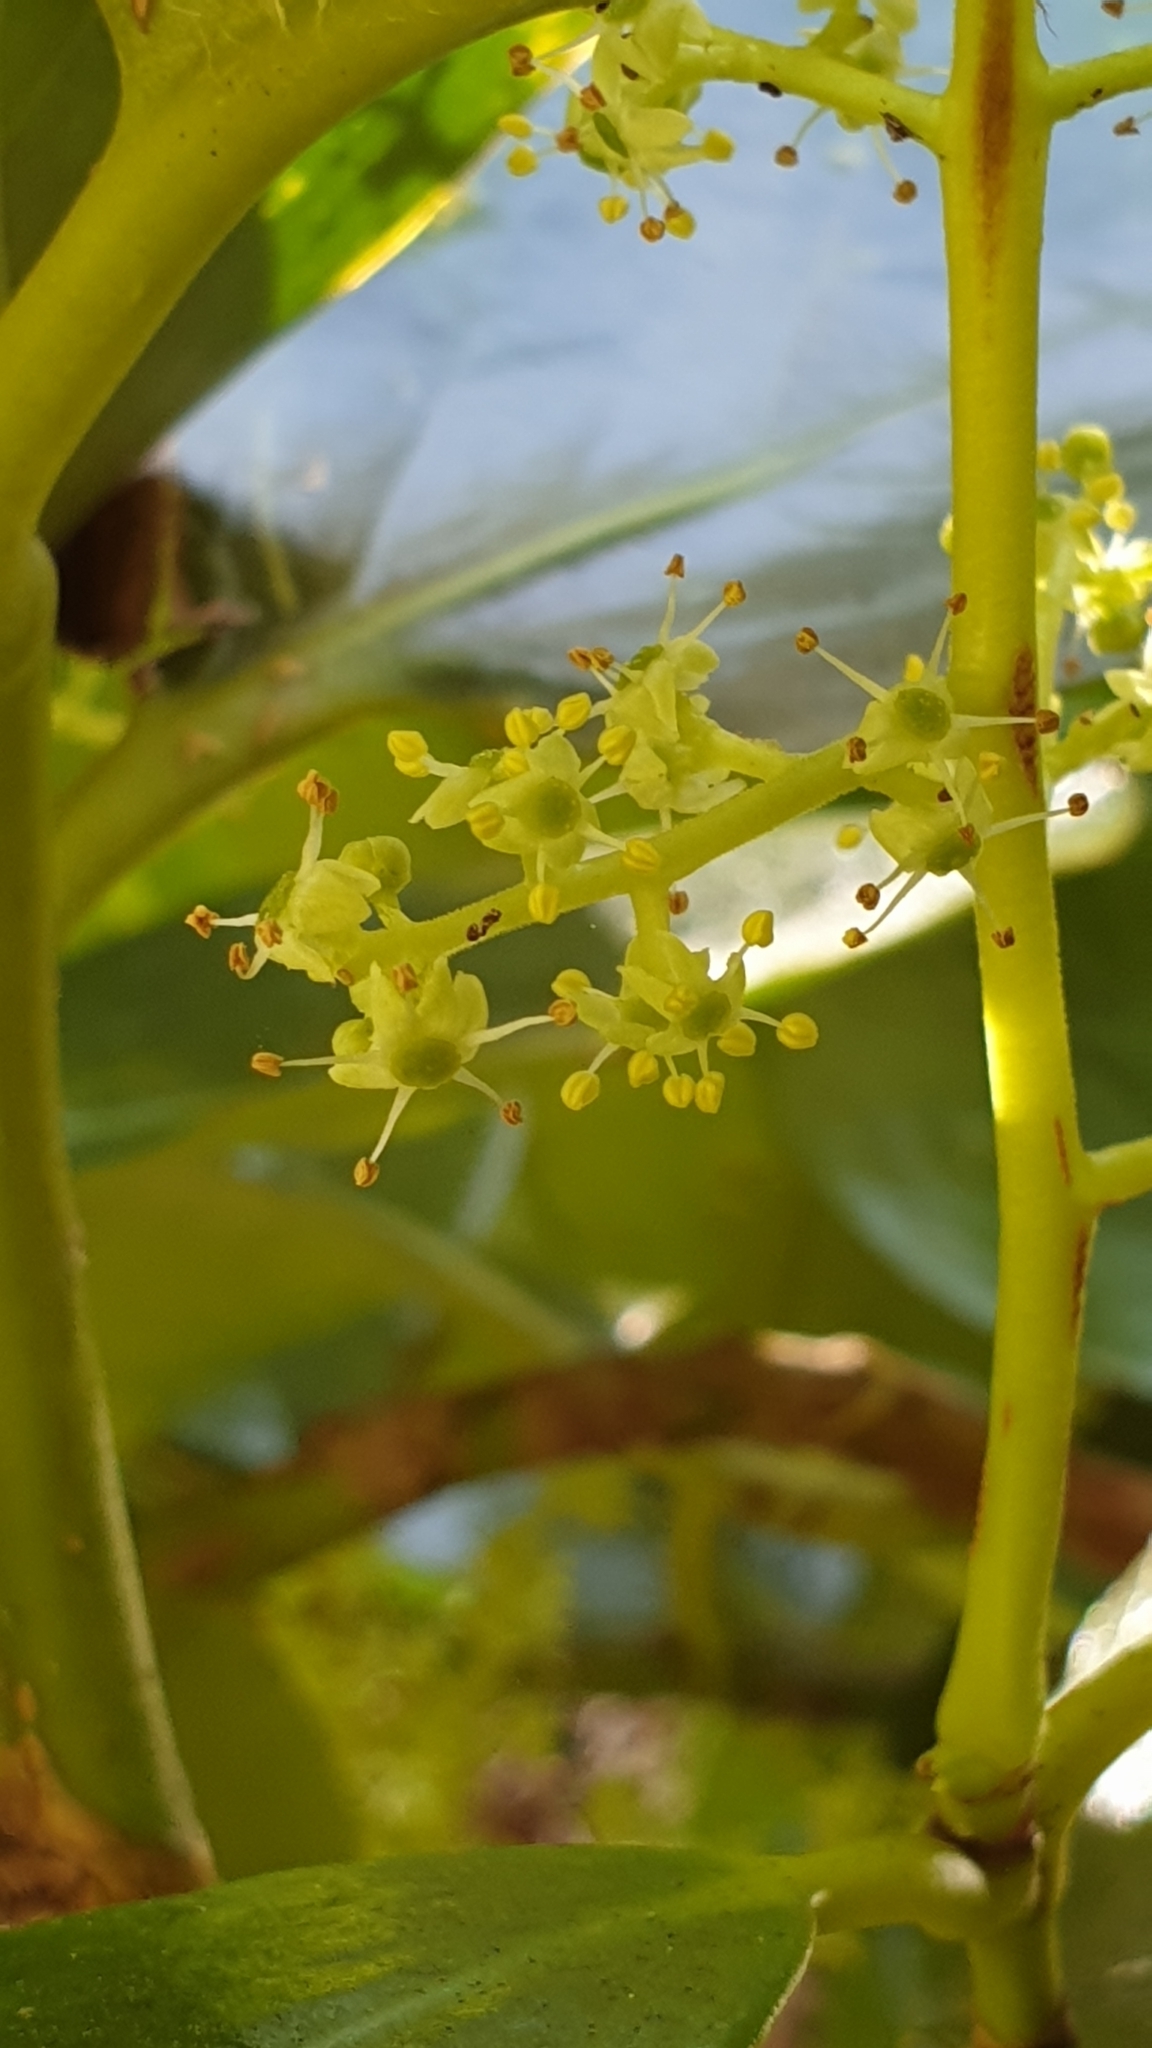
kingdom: Plantae
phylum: Tracheophyta
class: Magnoliopsida
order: Apiales
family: Griseliniaceae
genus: Griselinia
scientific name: Griselinia lucida
